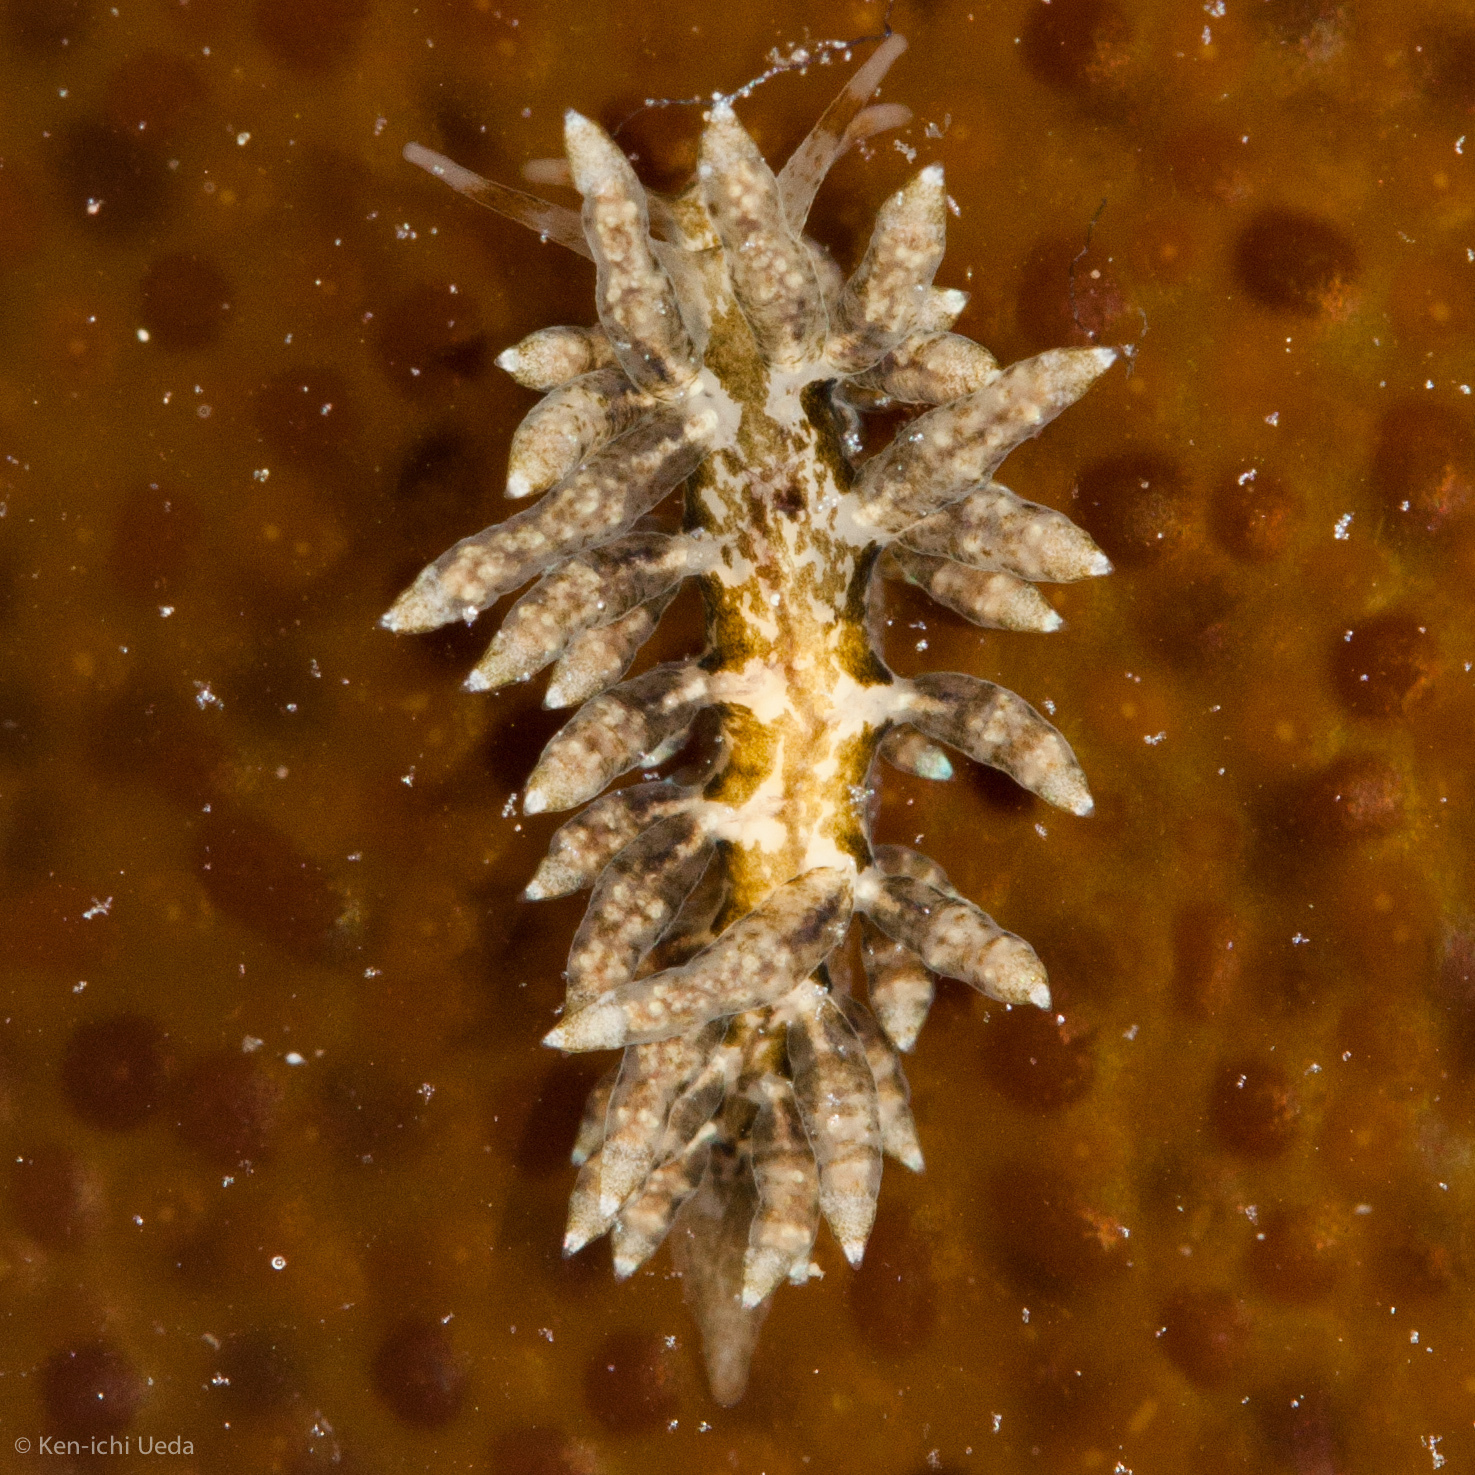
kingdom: Animalia
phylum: Mollusca
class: Gastropoda
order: Nudibranchia
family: Eubranchidae
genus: Eubranchus
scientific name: Eubranchus rustyus
